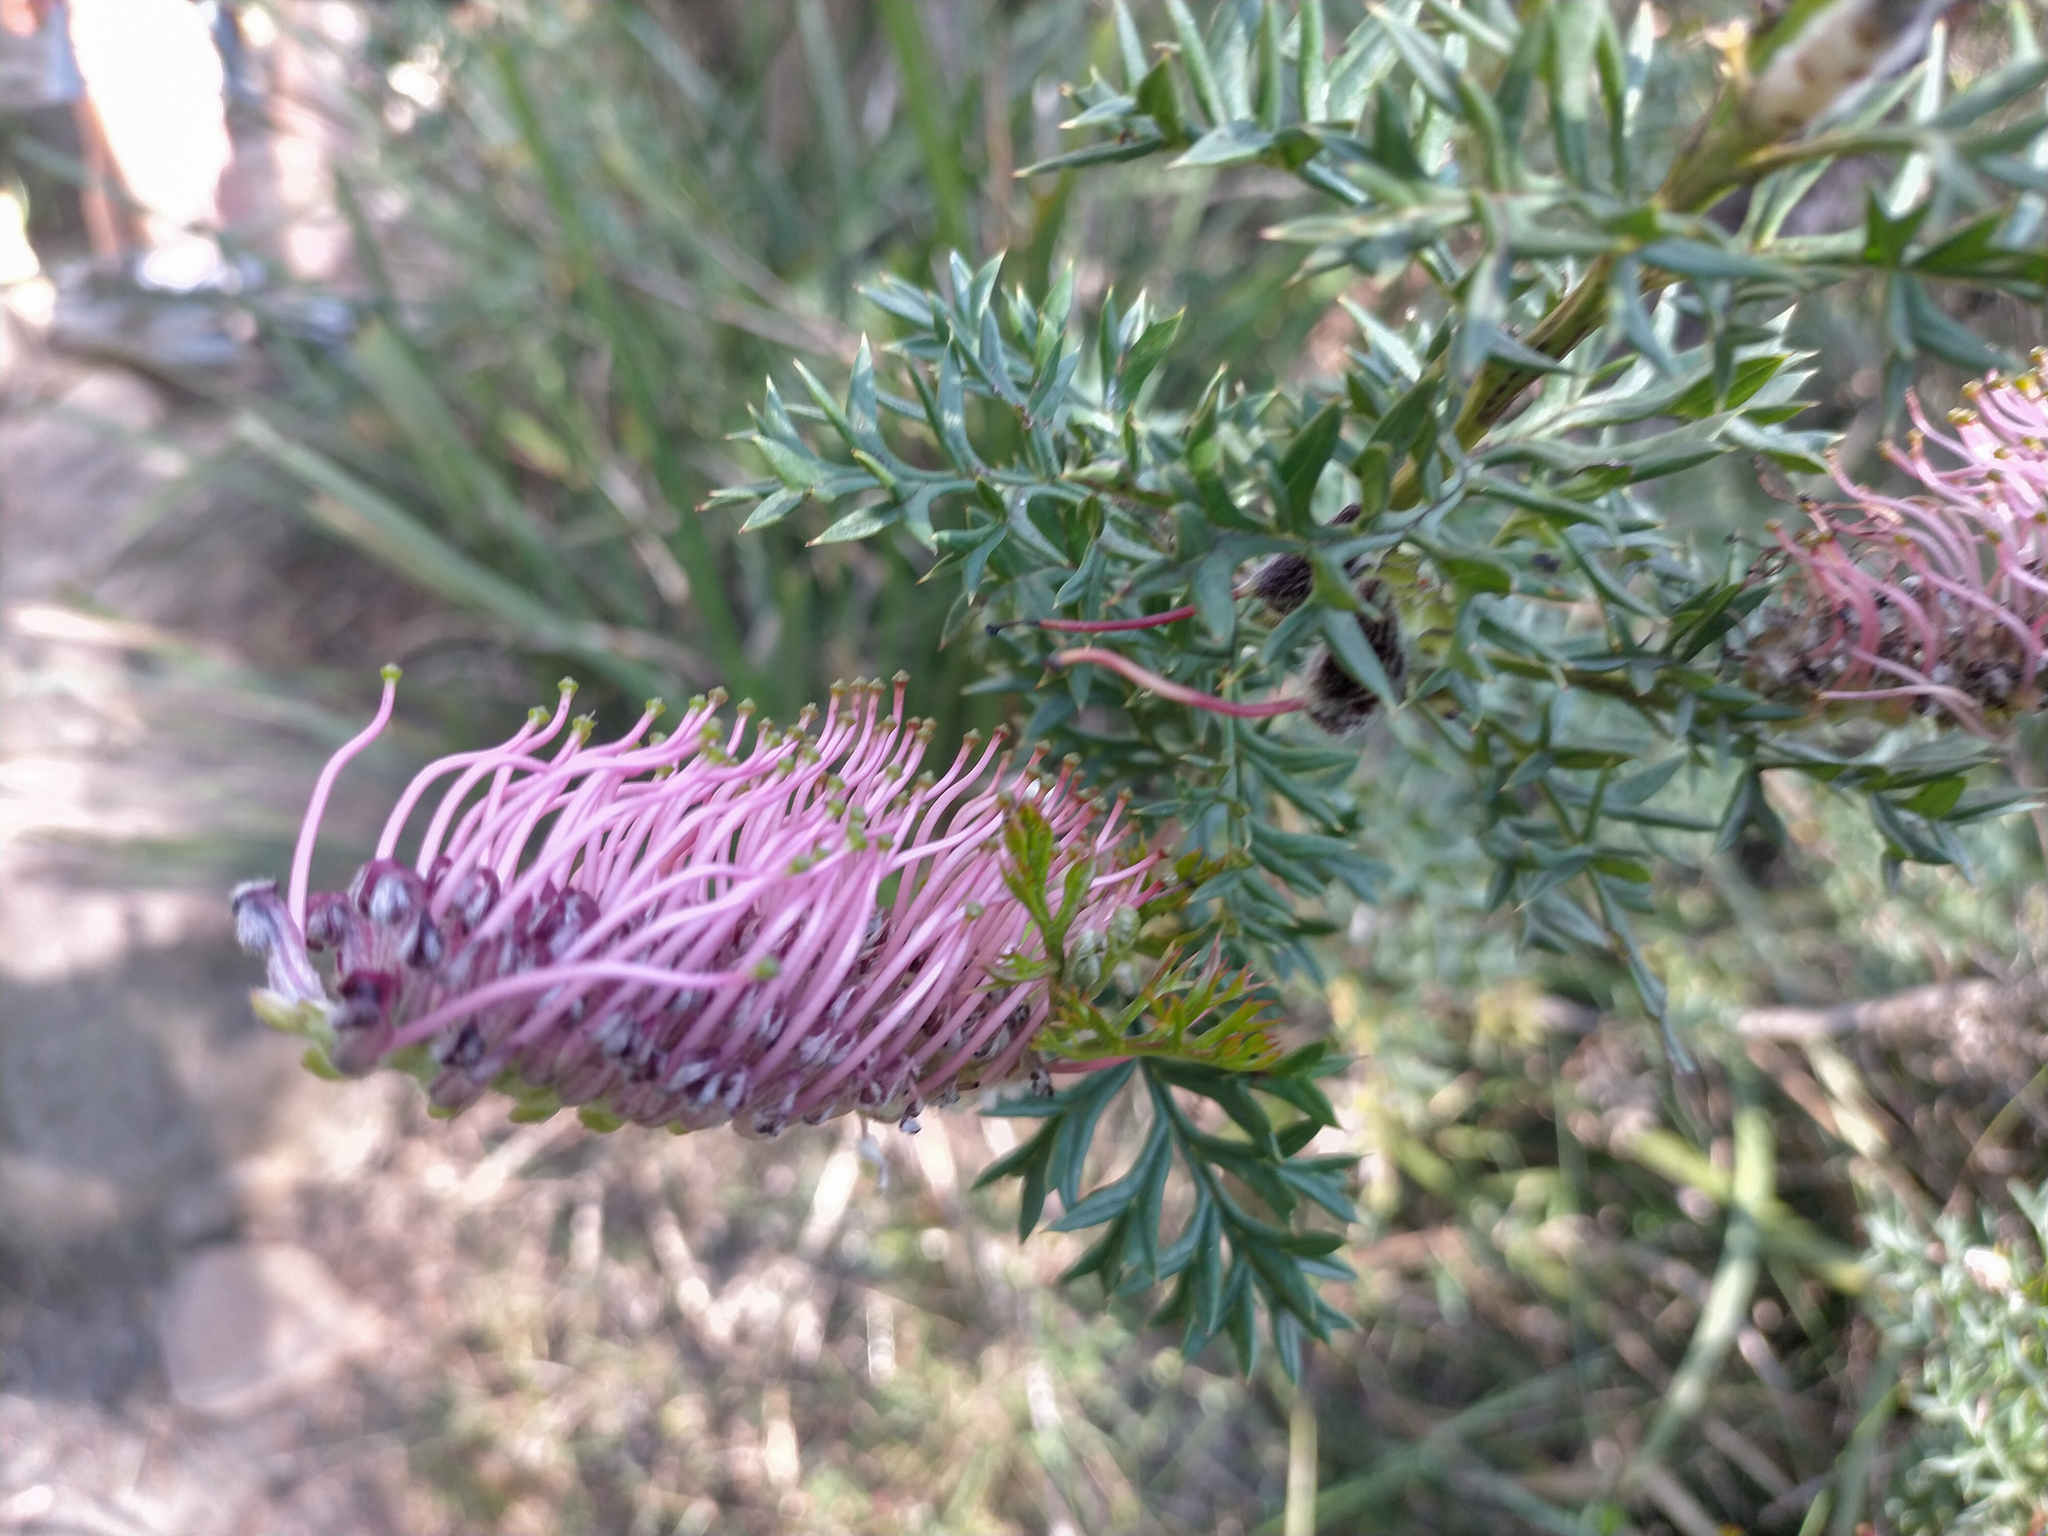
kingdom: Plantae
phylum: Tracheophyta
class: Magnoliopsida
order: Proteales
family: Proteaceae
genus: Grevillea
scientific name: Grevillea acanthifolia
